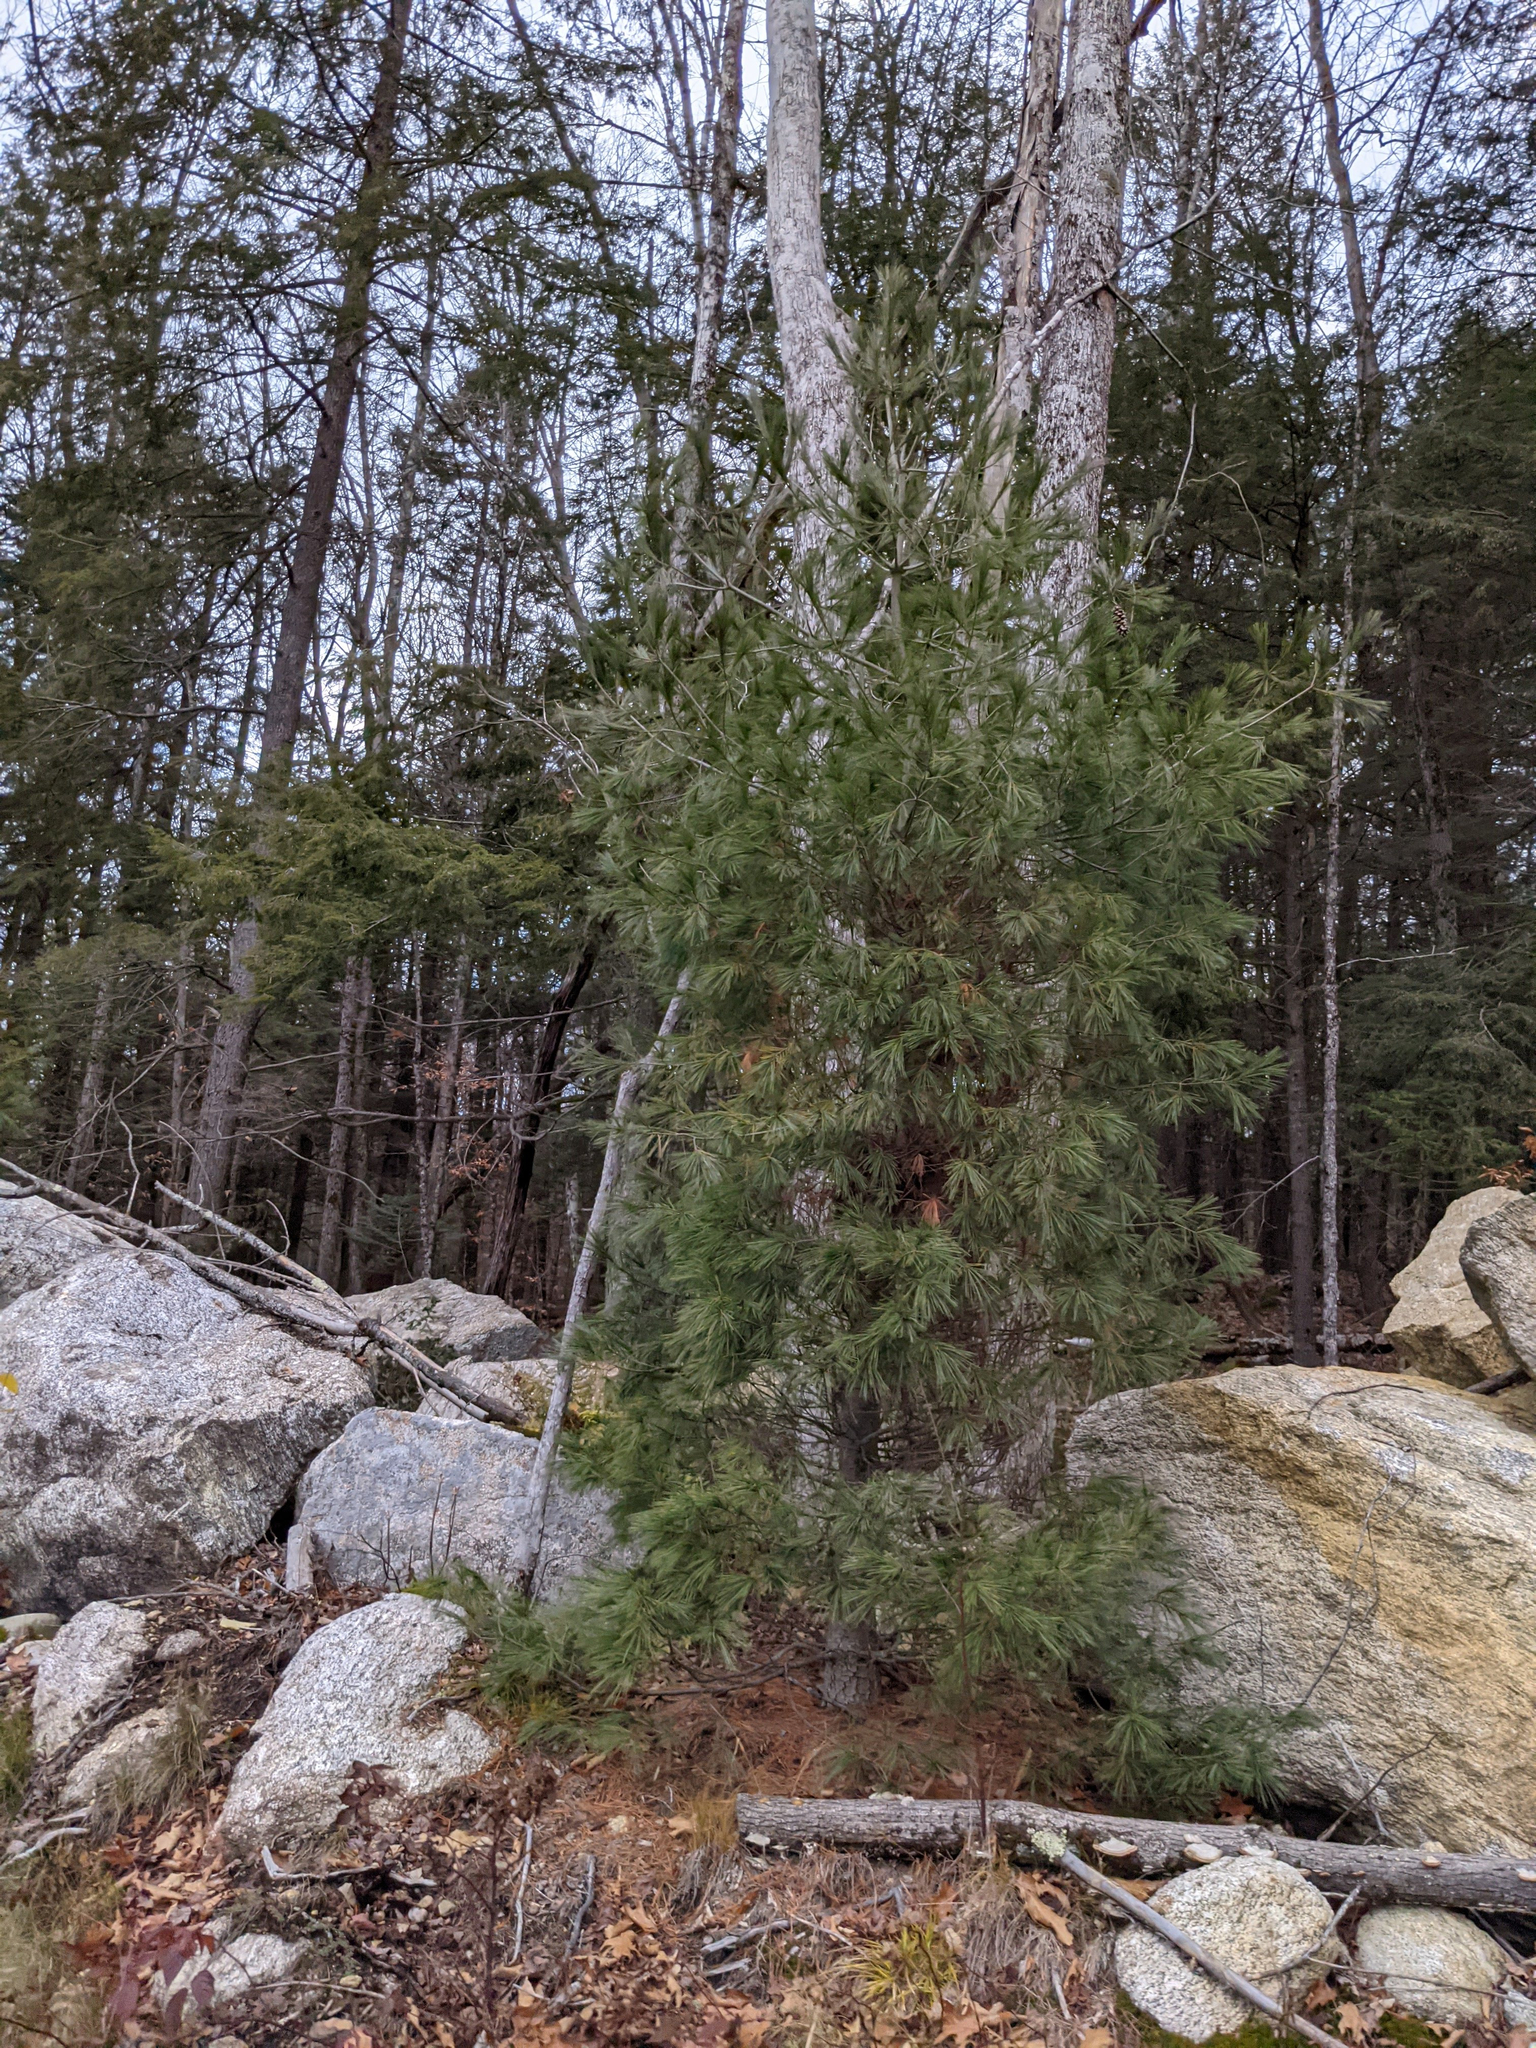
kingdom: Plantae
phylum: Tracheophyta
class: Pinopsida
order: Pinales
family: Pinaceae
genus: Pinus
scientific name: Pinus strobus
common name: Weymouth pine
